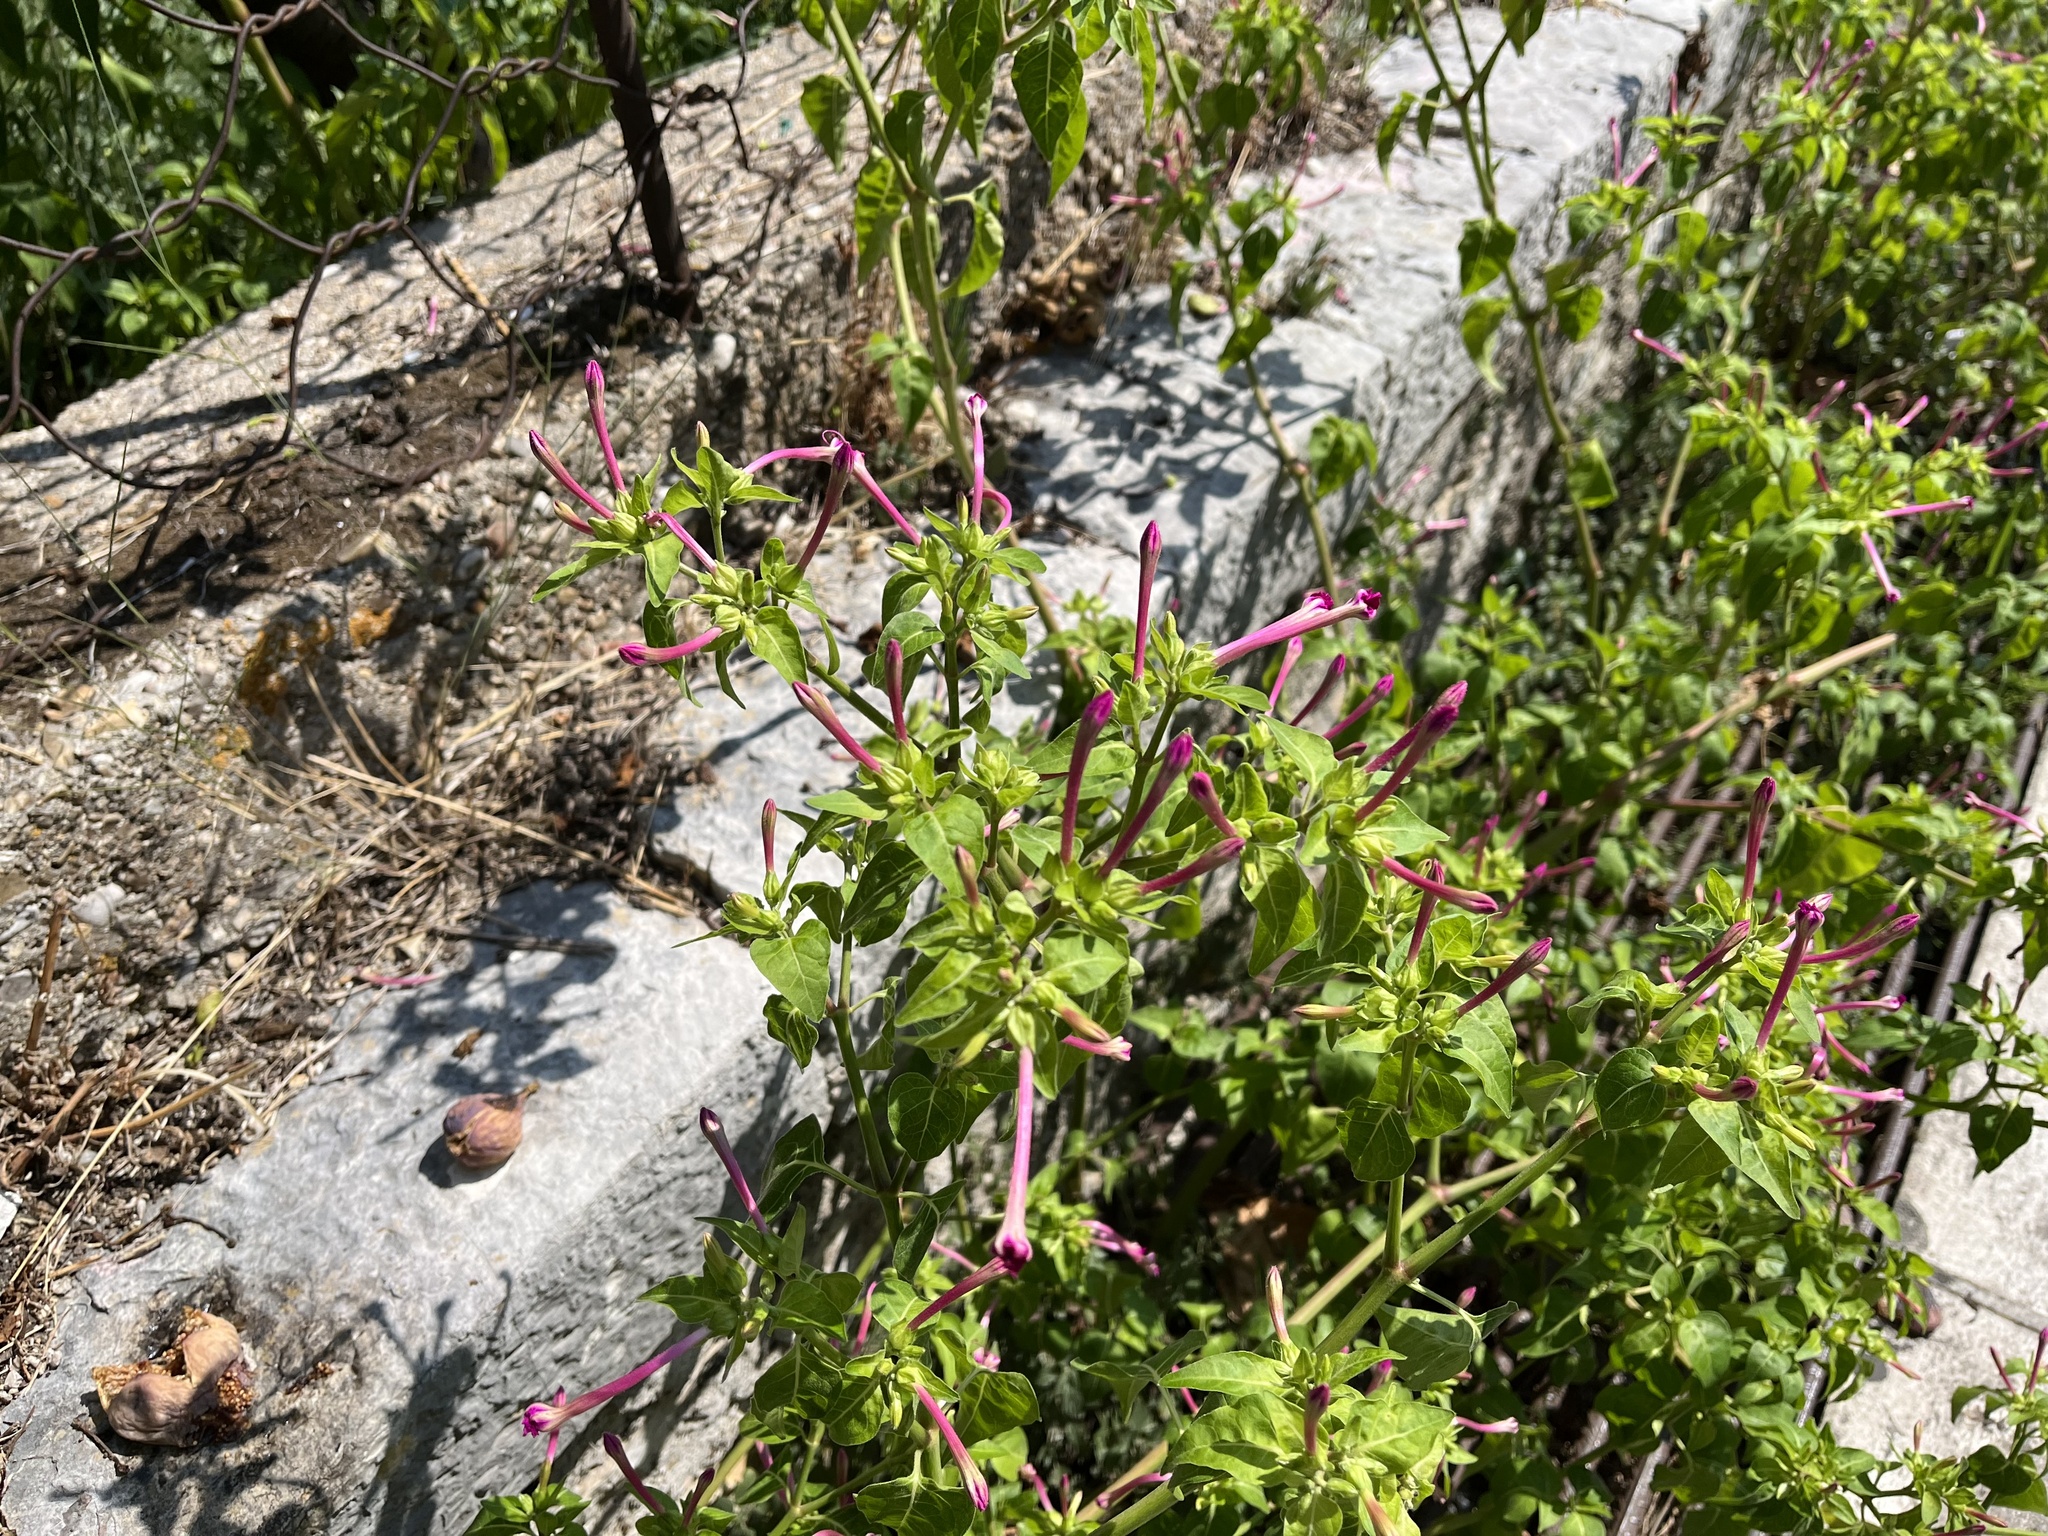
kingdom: Plantae
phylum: Tracheophyta
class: Magnoliopsida
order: Caryophyllales
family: Nyctaginaceae
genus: Mirabilis
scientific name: Mirabilis jalapa
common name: Marvel-of-peru
